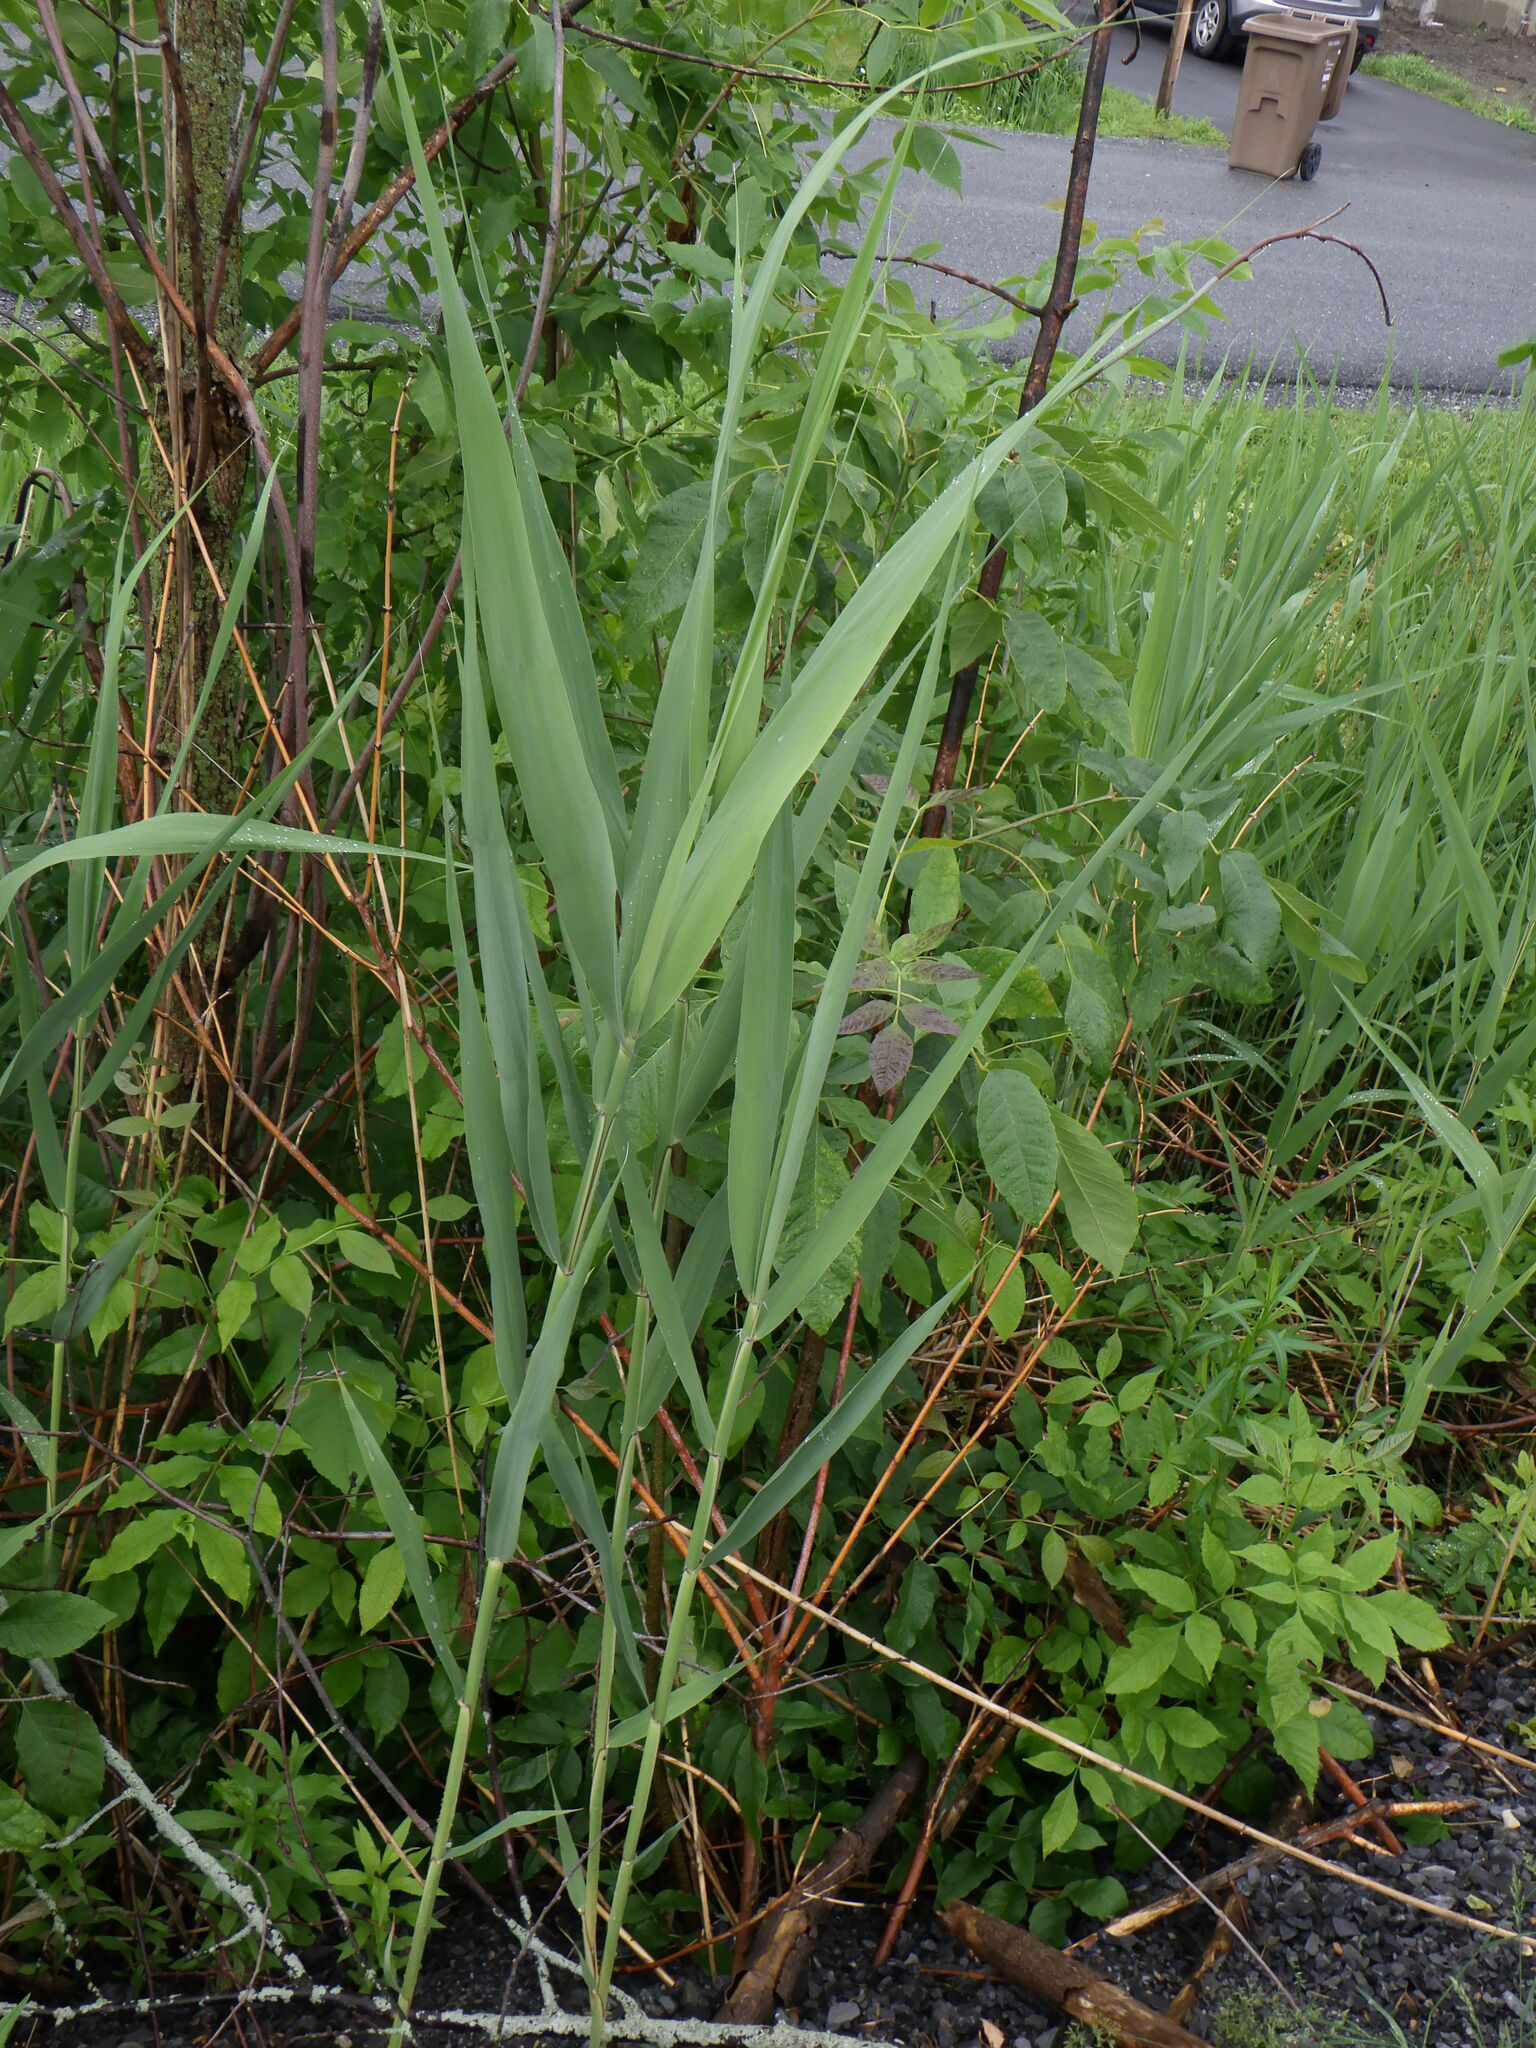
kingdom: Plantae
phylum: Tracheophyta
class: Liliopsida
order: Poales
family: Poaceae
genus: Phragmites
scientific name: Phragmites australis
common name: Common reed
